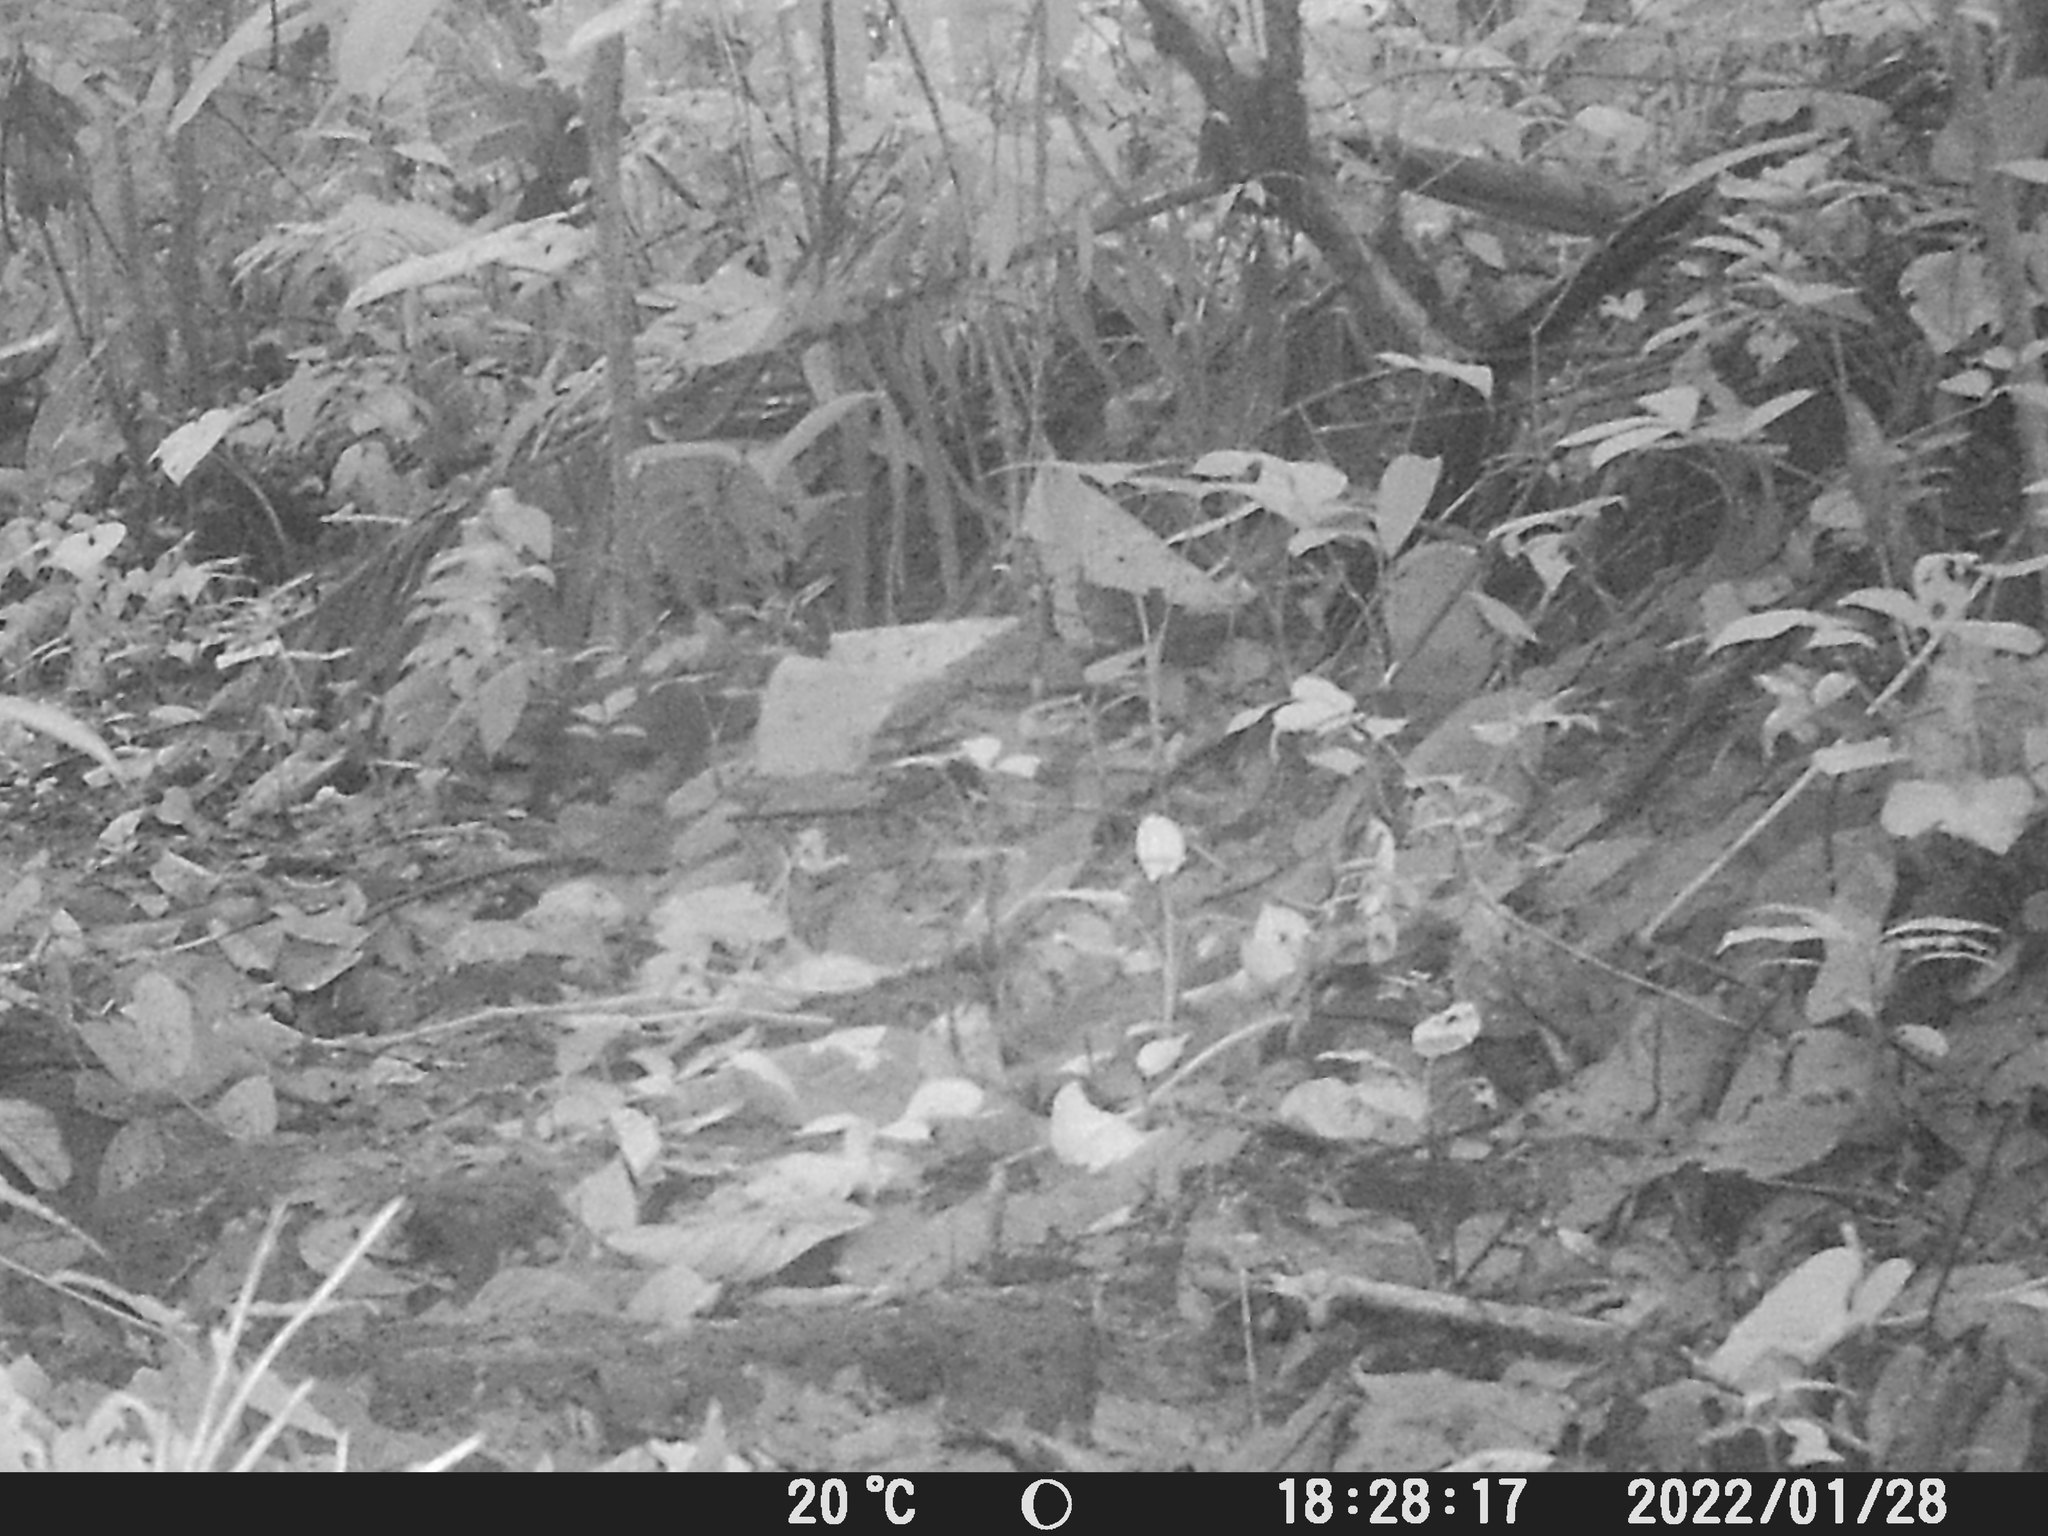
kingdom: Animalia
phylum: Chordata
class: Mammalia
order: Rodentia
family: Dasyproctidae
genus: Dasyprocta
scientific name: Dasyprocta punctata
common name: Central american agouti
